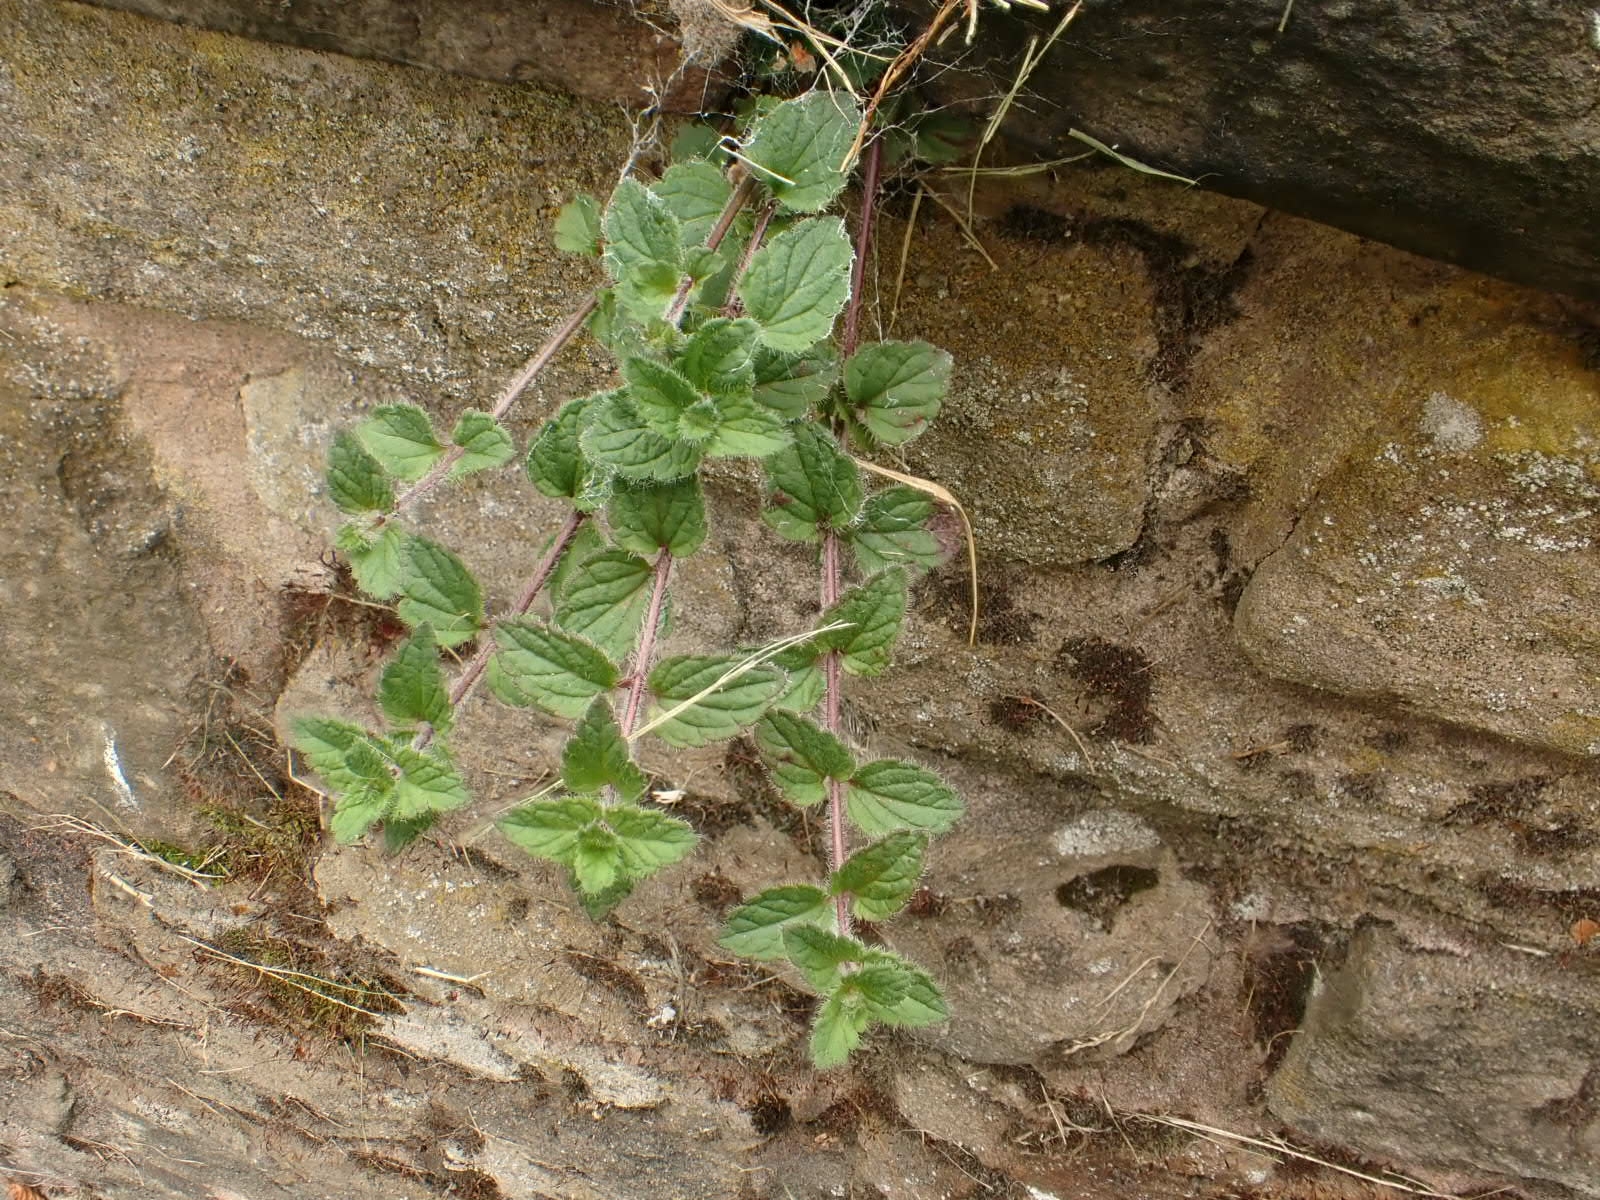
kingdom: Plantae
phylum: Tracheophyta
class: Magnoliopsida
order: Lamiales
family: Plantaginaceae
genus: Veronica
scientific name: Veronica chamaedrys
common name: Germander speedwell
